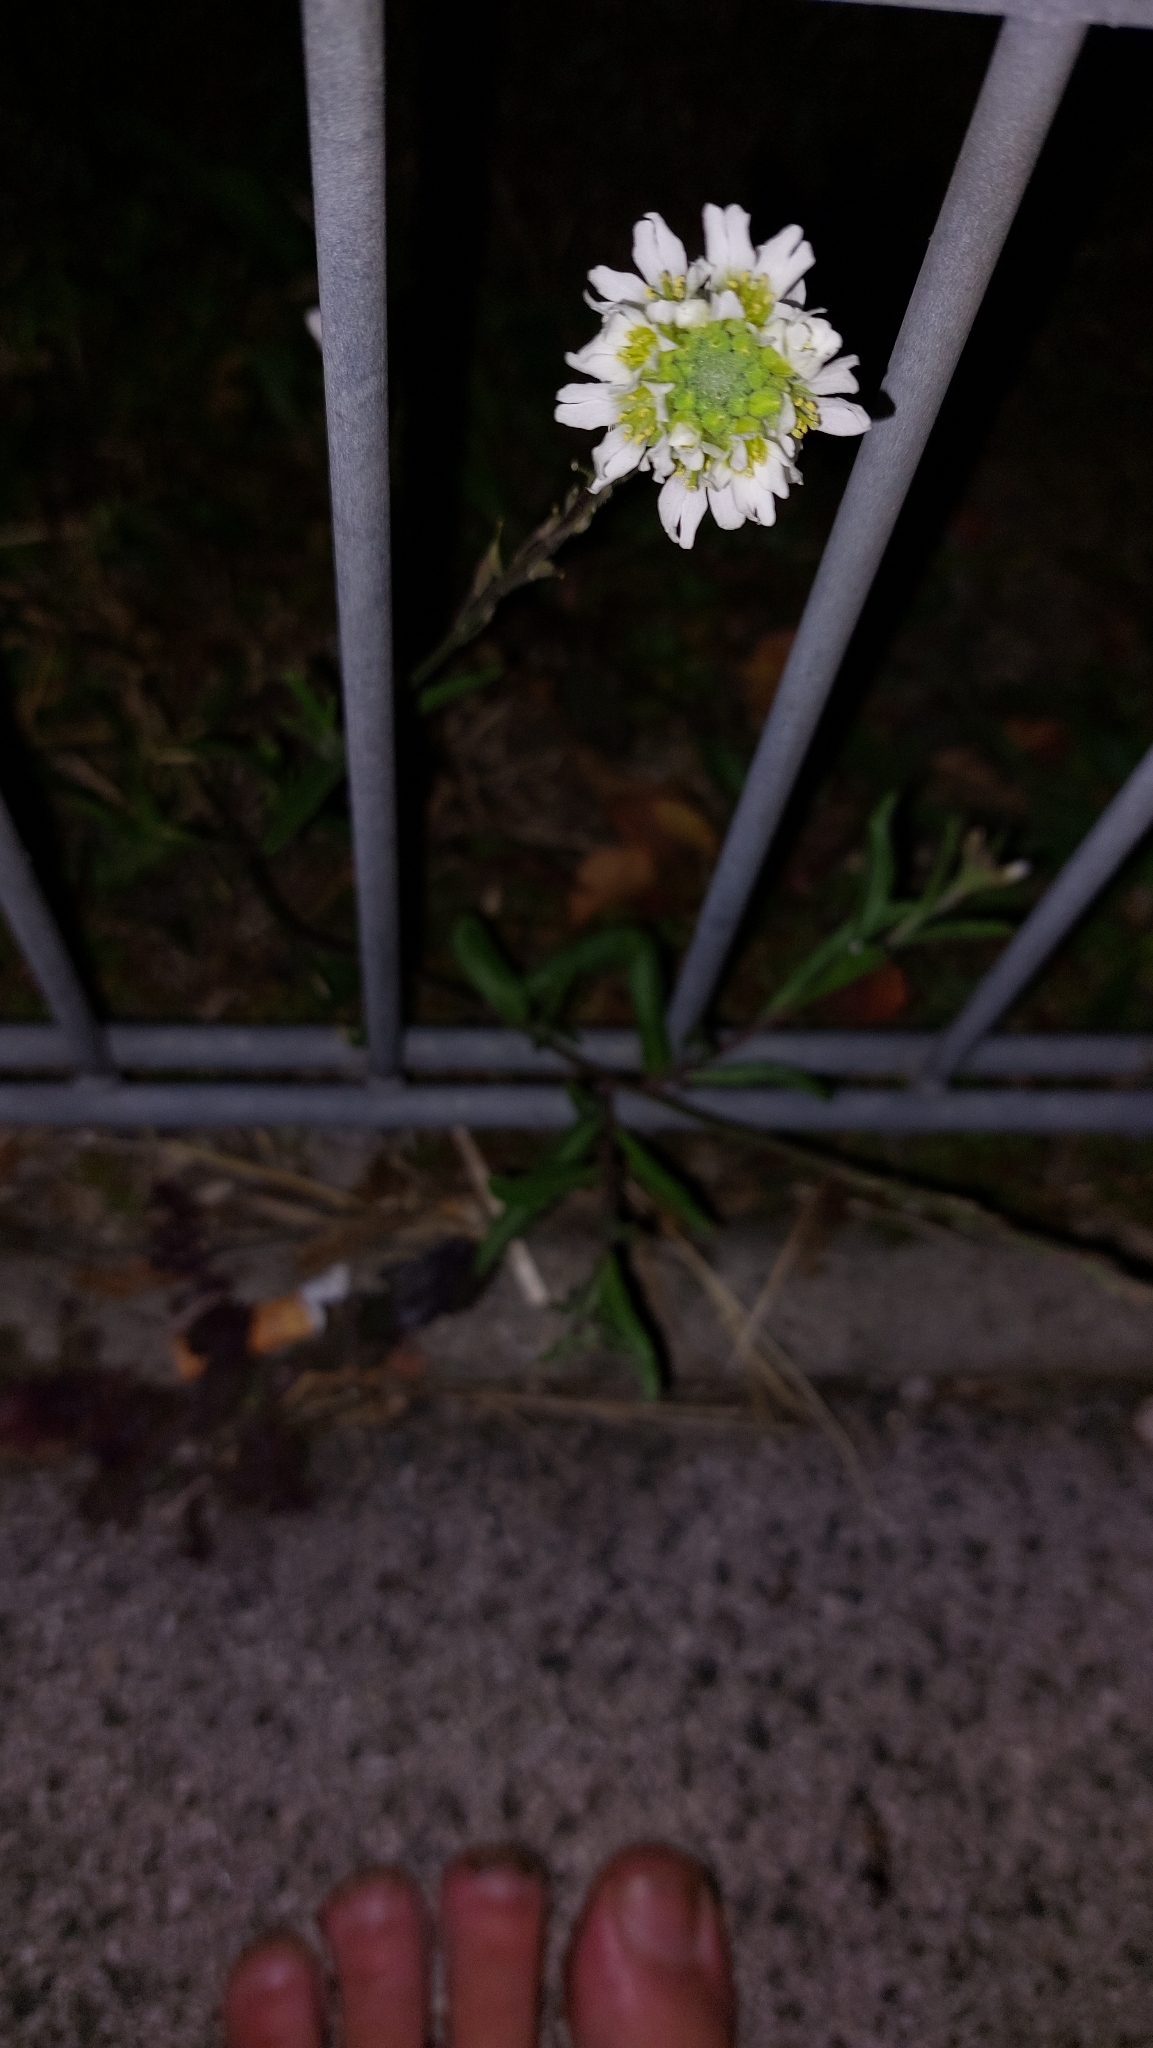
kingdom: Plantae
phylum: Tracheophyta
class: Magnoliopsida
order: Brassicales
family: Brassicaceae
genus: Berteroa
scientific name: Berteroa incana
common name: Hoary alison
